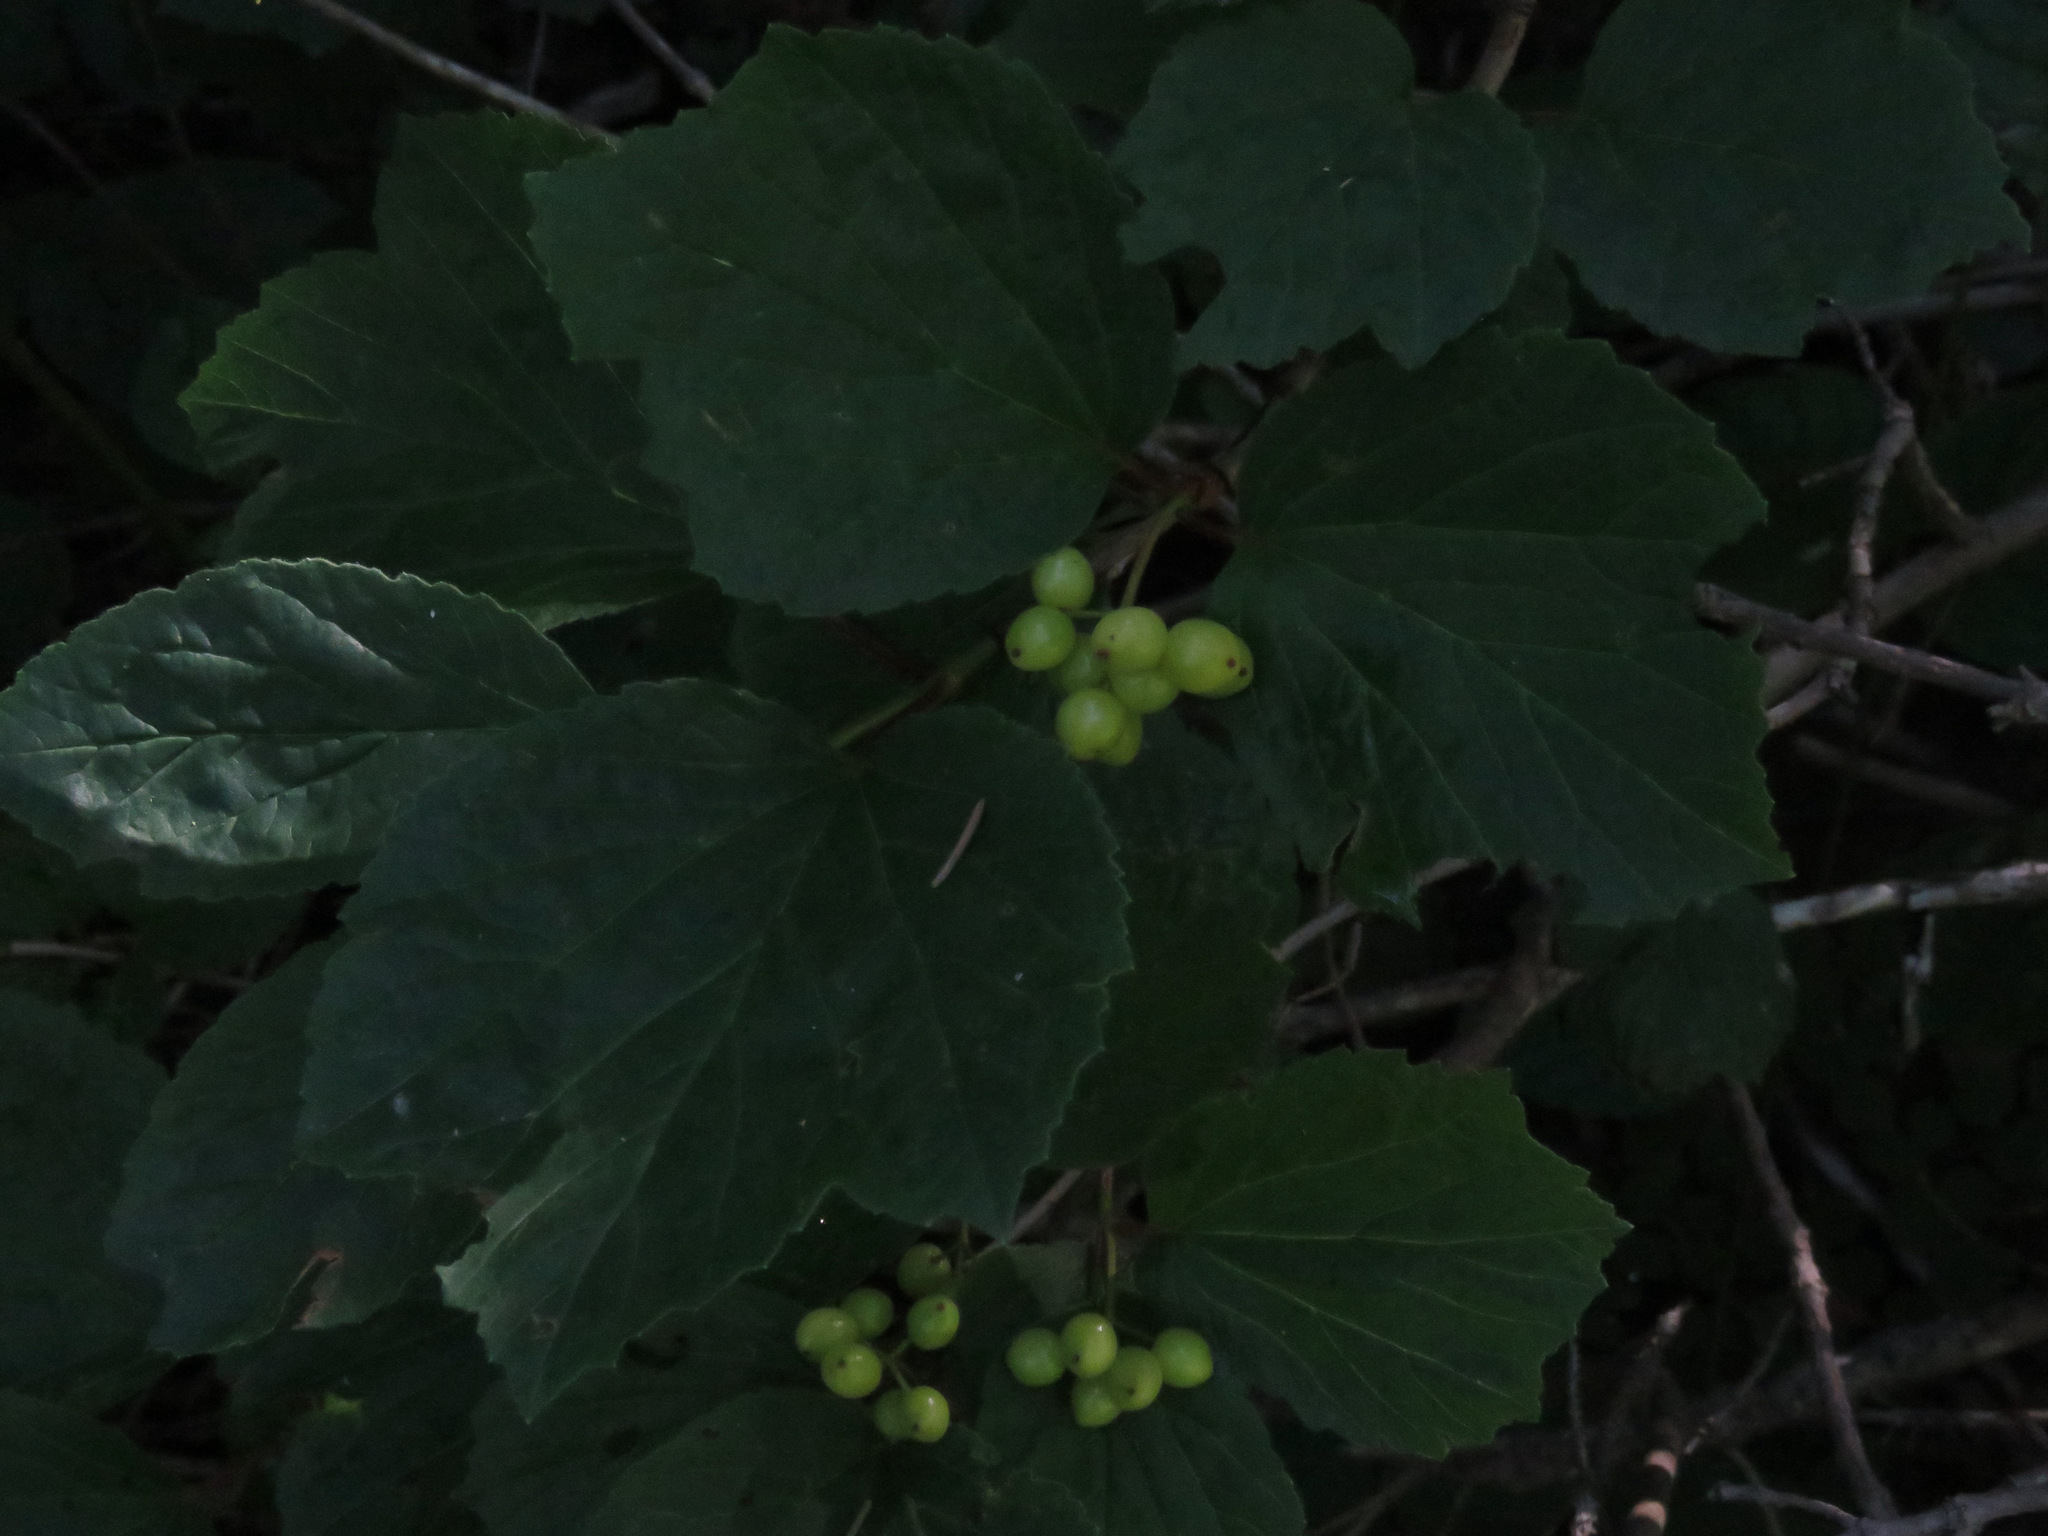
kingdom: Plantae
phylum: Tracheophyta
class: Magnoliopsida
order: Dipsacales
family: Viburnaceae
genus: Viburnum
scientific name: Viburnum edule
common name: Mooseberry
